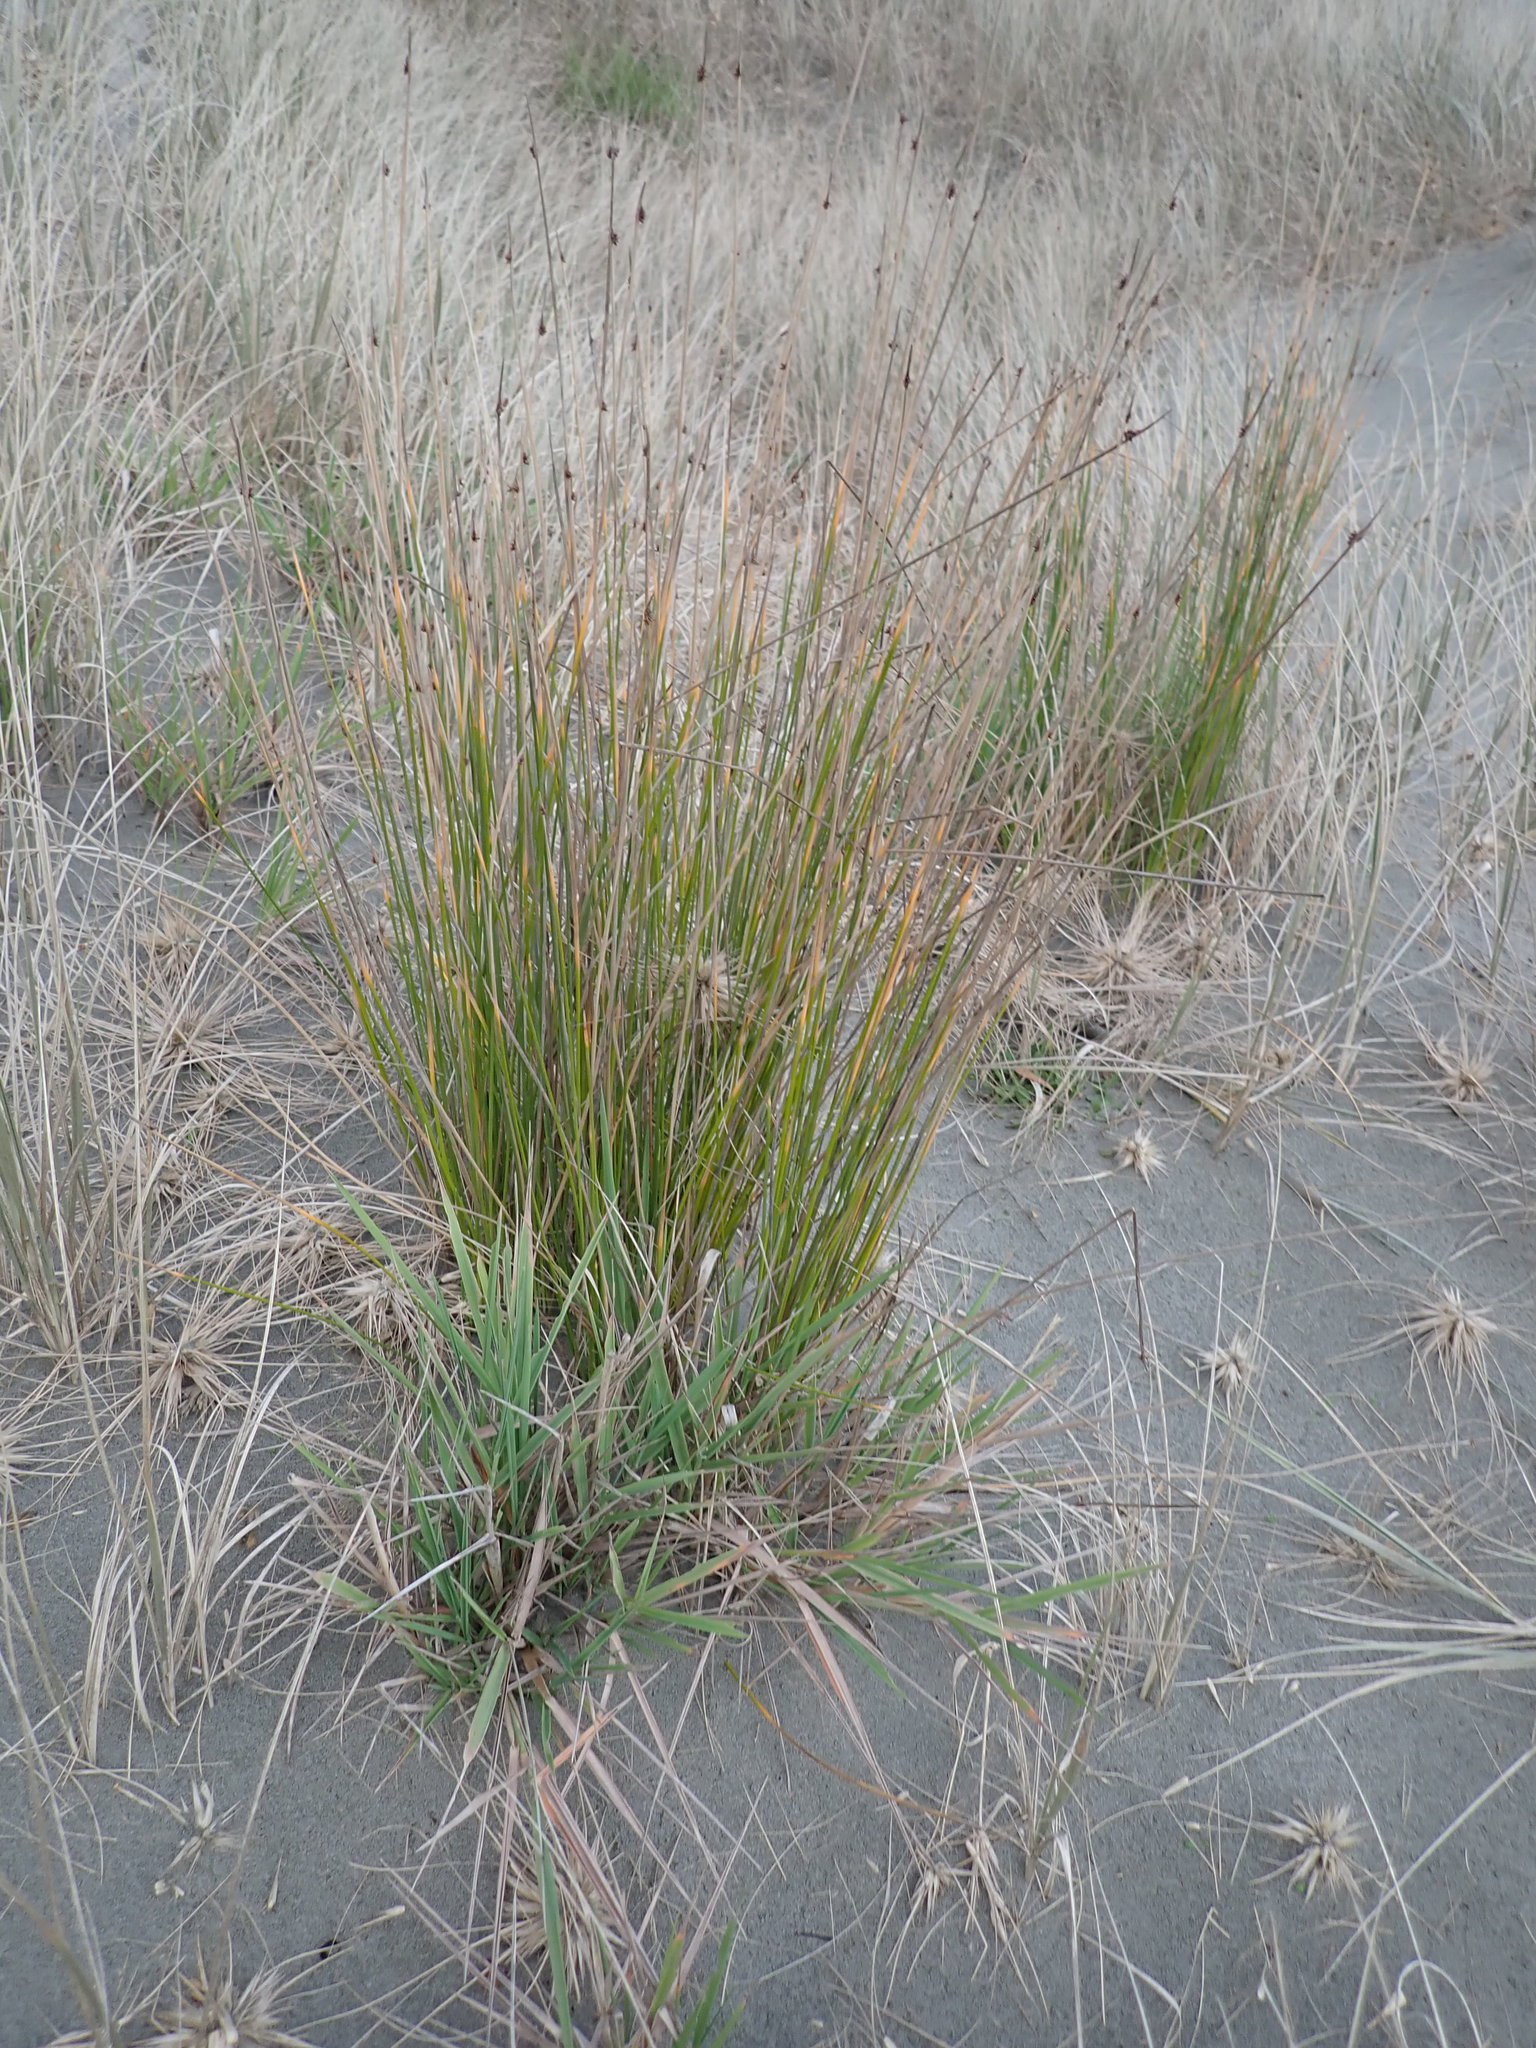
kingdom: Plantae
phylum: Tracheophyta
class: Liliopsida
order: Poales
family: Cyperaceae
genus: Ficinia
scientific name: Ficinia nodosa
